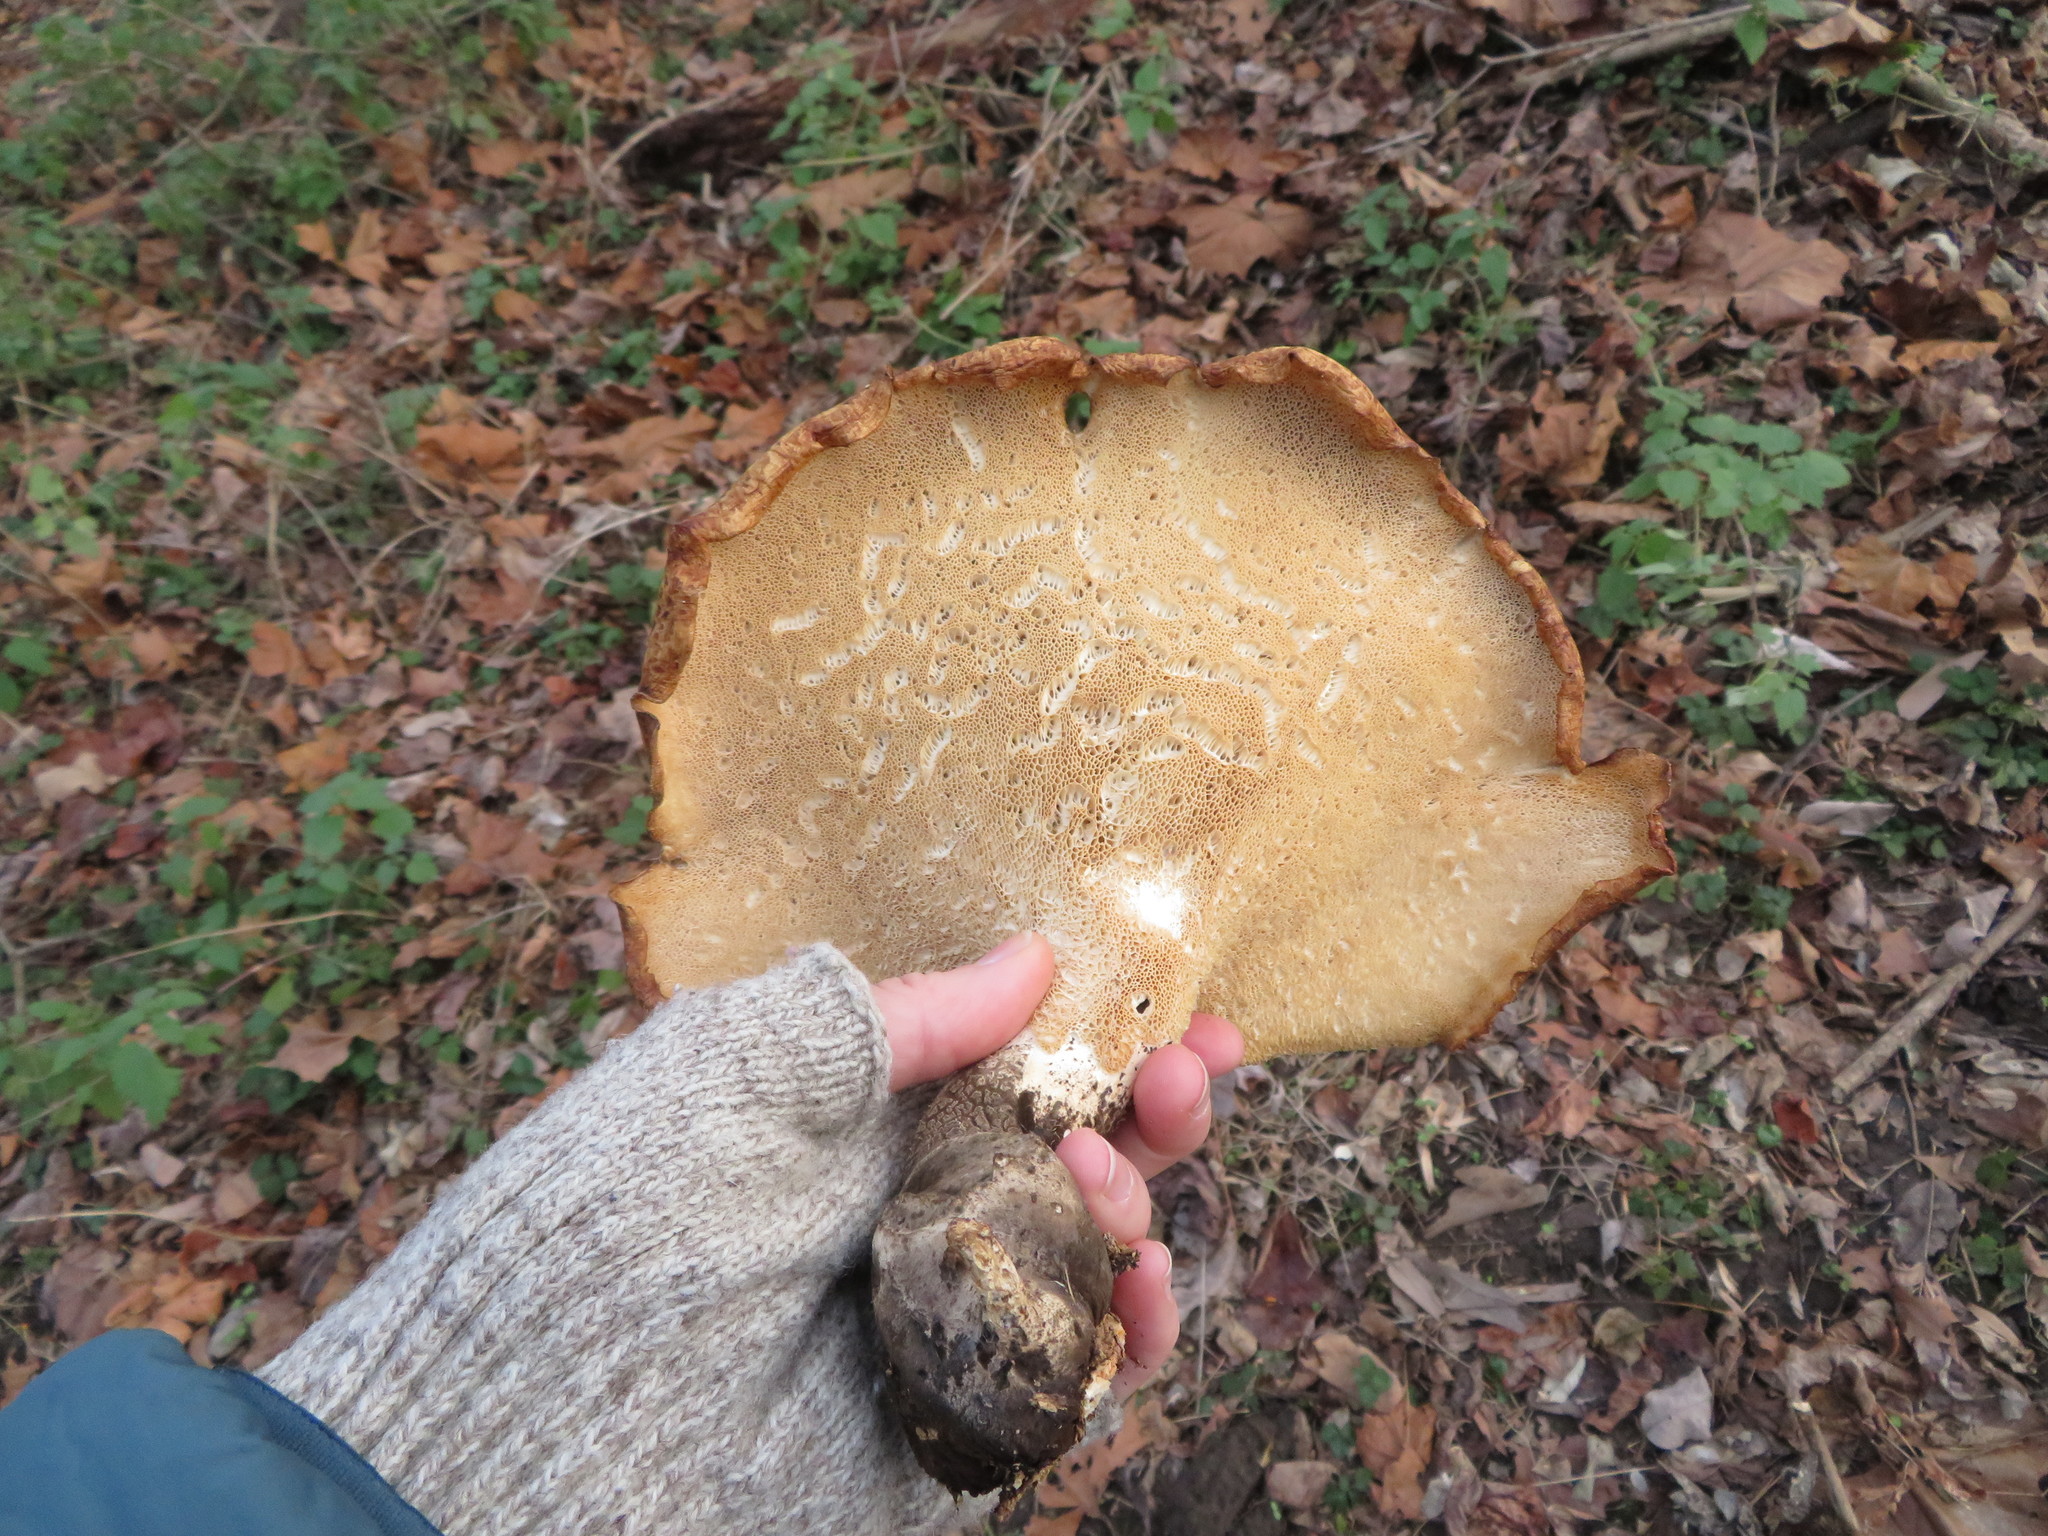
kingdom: Fungi
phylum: Basidiomycota
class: Agaricomycetes
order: Polyporales
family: Polyporaceae
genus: Cerioporus
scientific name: Cerioporus squamosus
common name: Dryad's saddle
